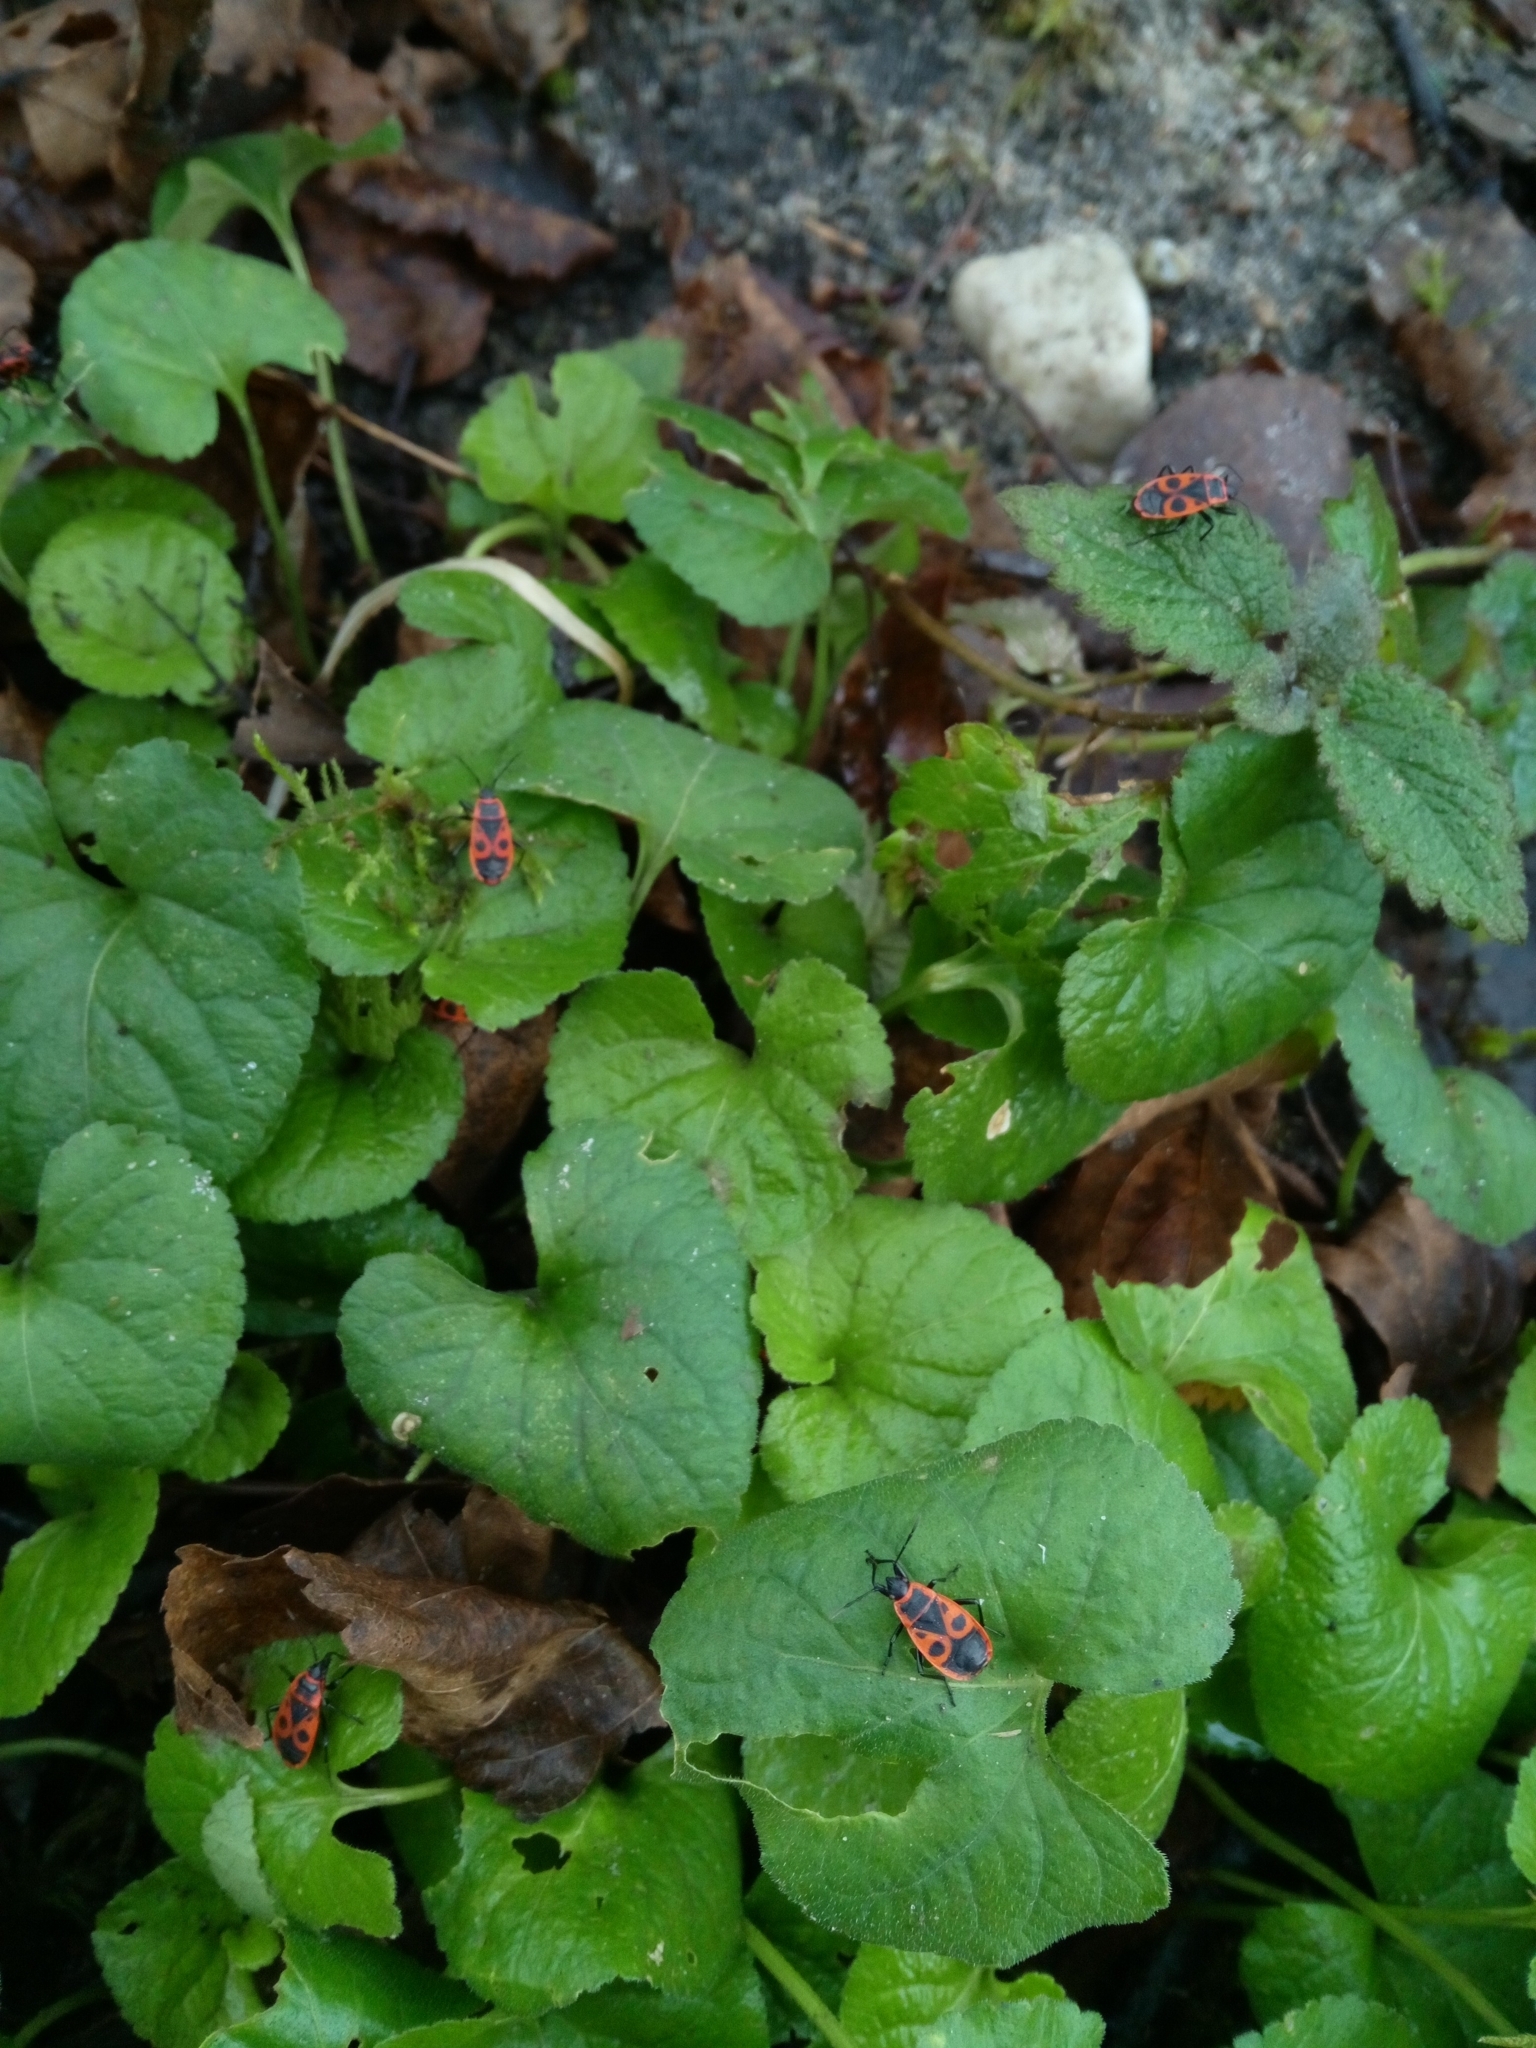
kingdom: Animalia
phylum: Arthropoda
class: Insecta
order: Hemiptera
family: Pyrrhocoridae
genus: Pyrrhocoris
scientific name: Pyrrhocoris apterus
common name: Firebug
